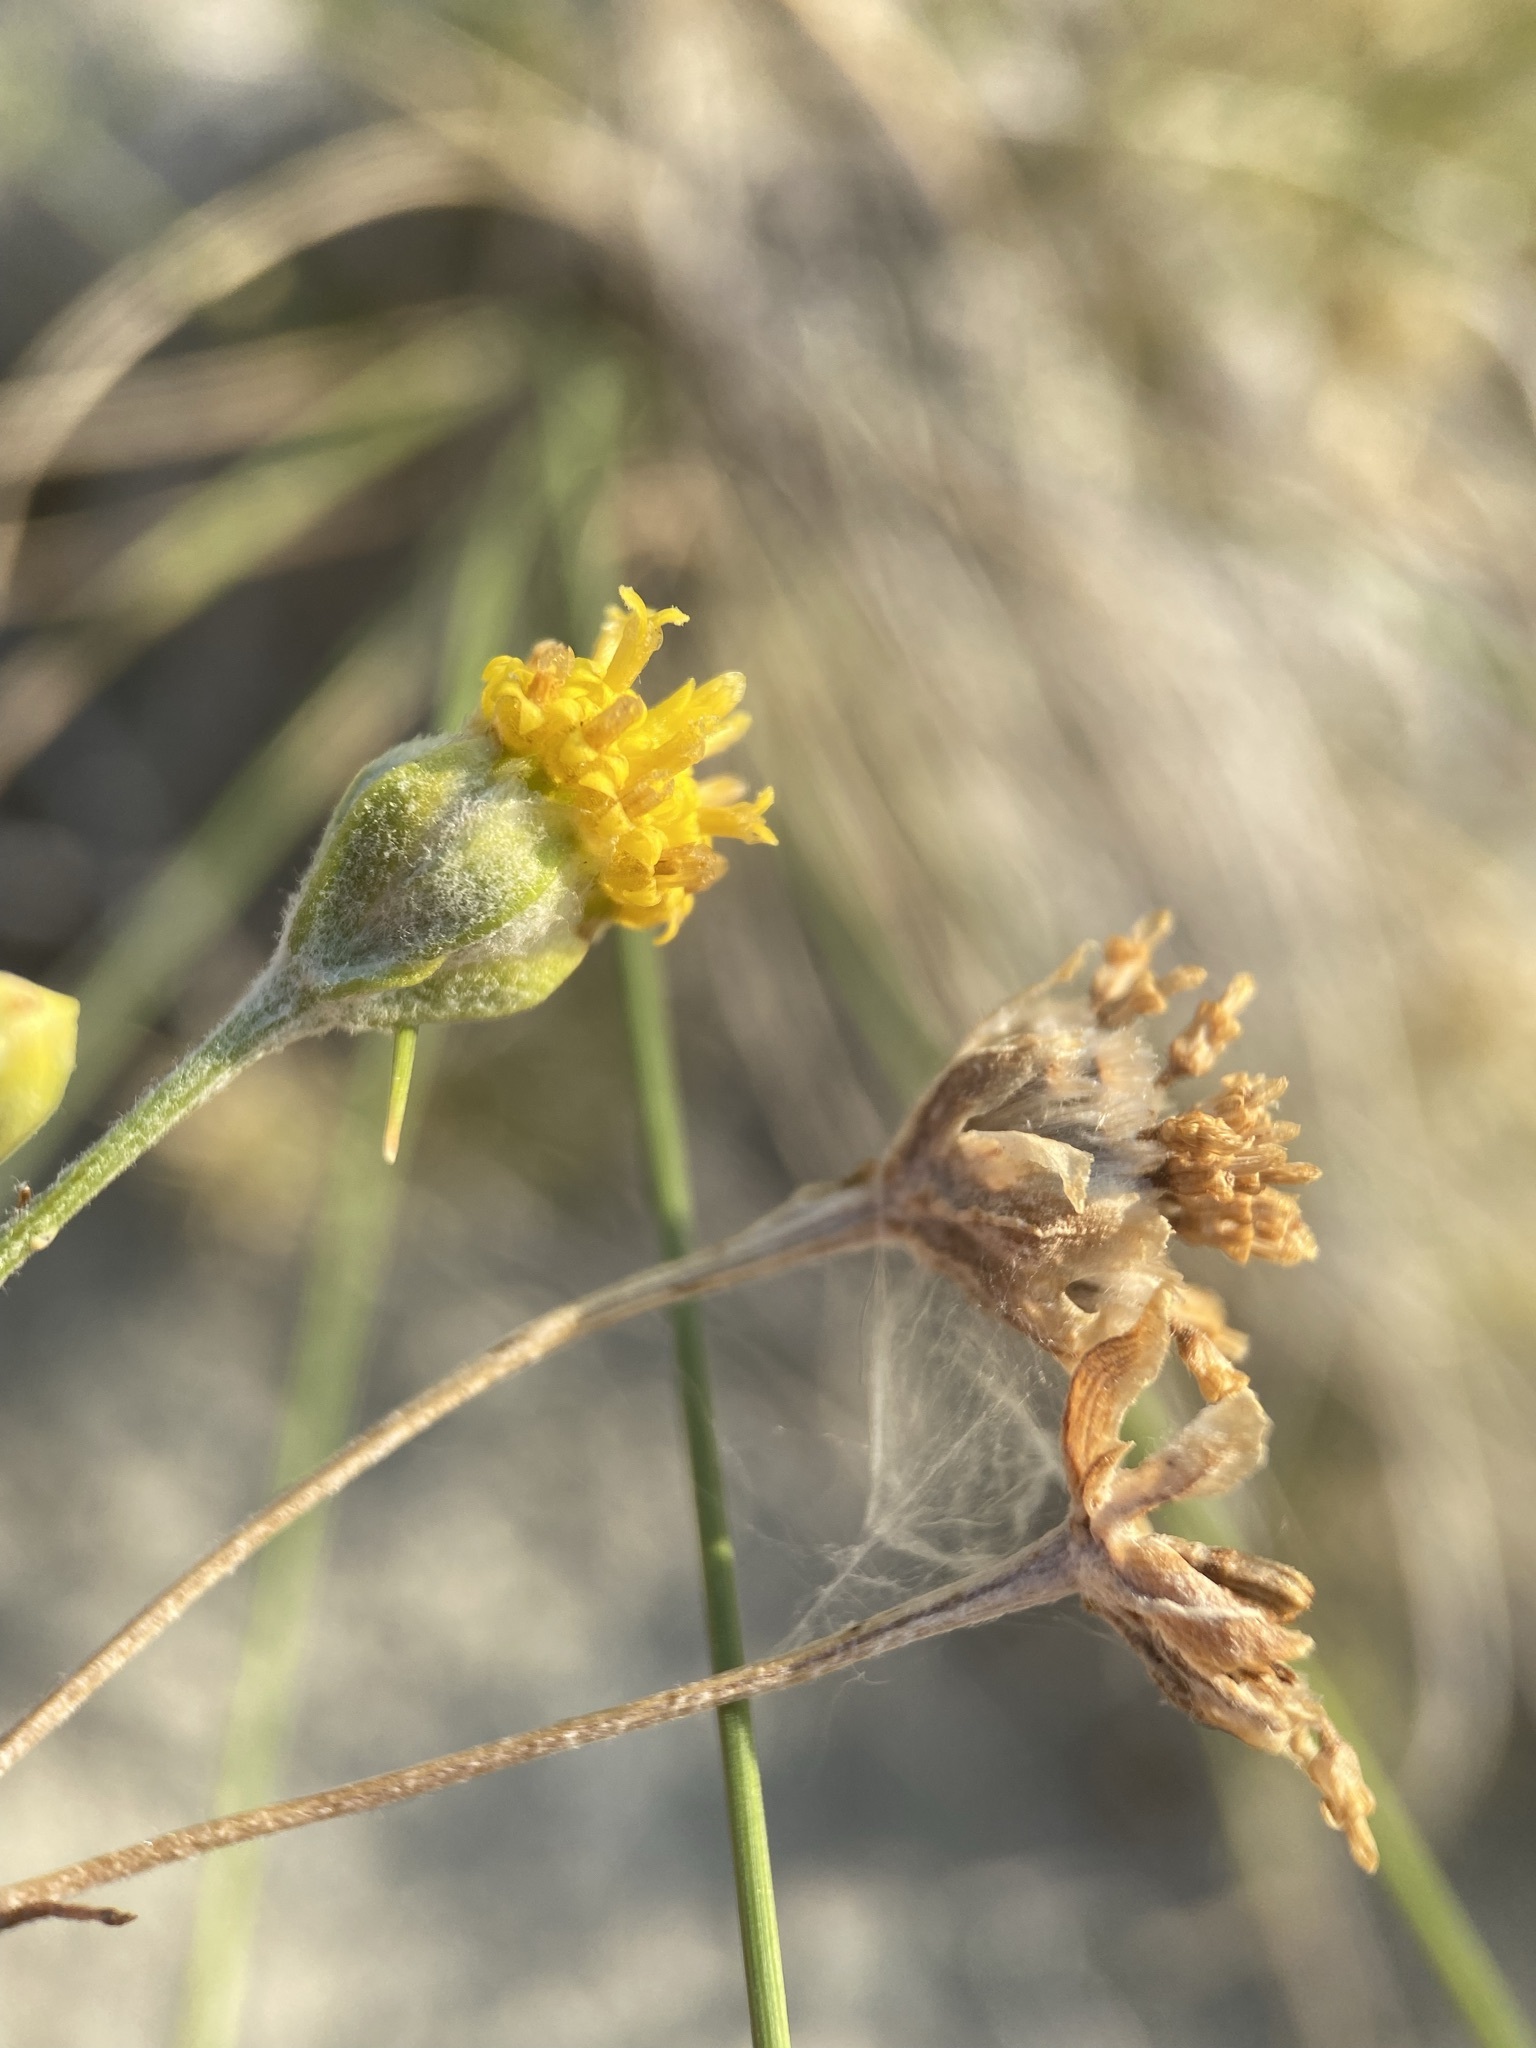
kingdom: Plantae
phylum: Tracheophyta
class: Magnoliopsida
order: Asterales
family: Asteraceae
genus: Hymenopappus
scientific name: Hymenopappus filifolius
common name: Columbia cutleaf
